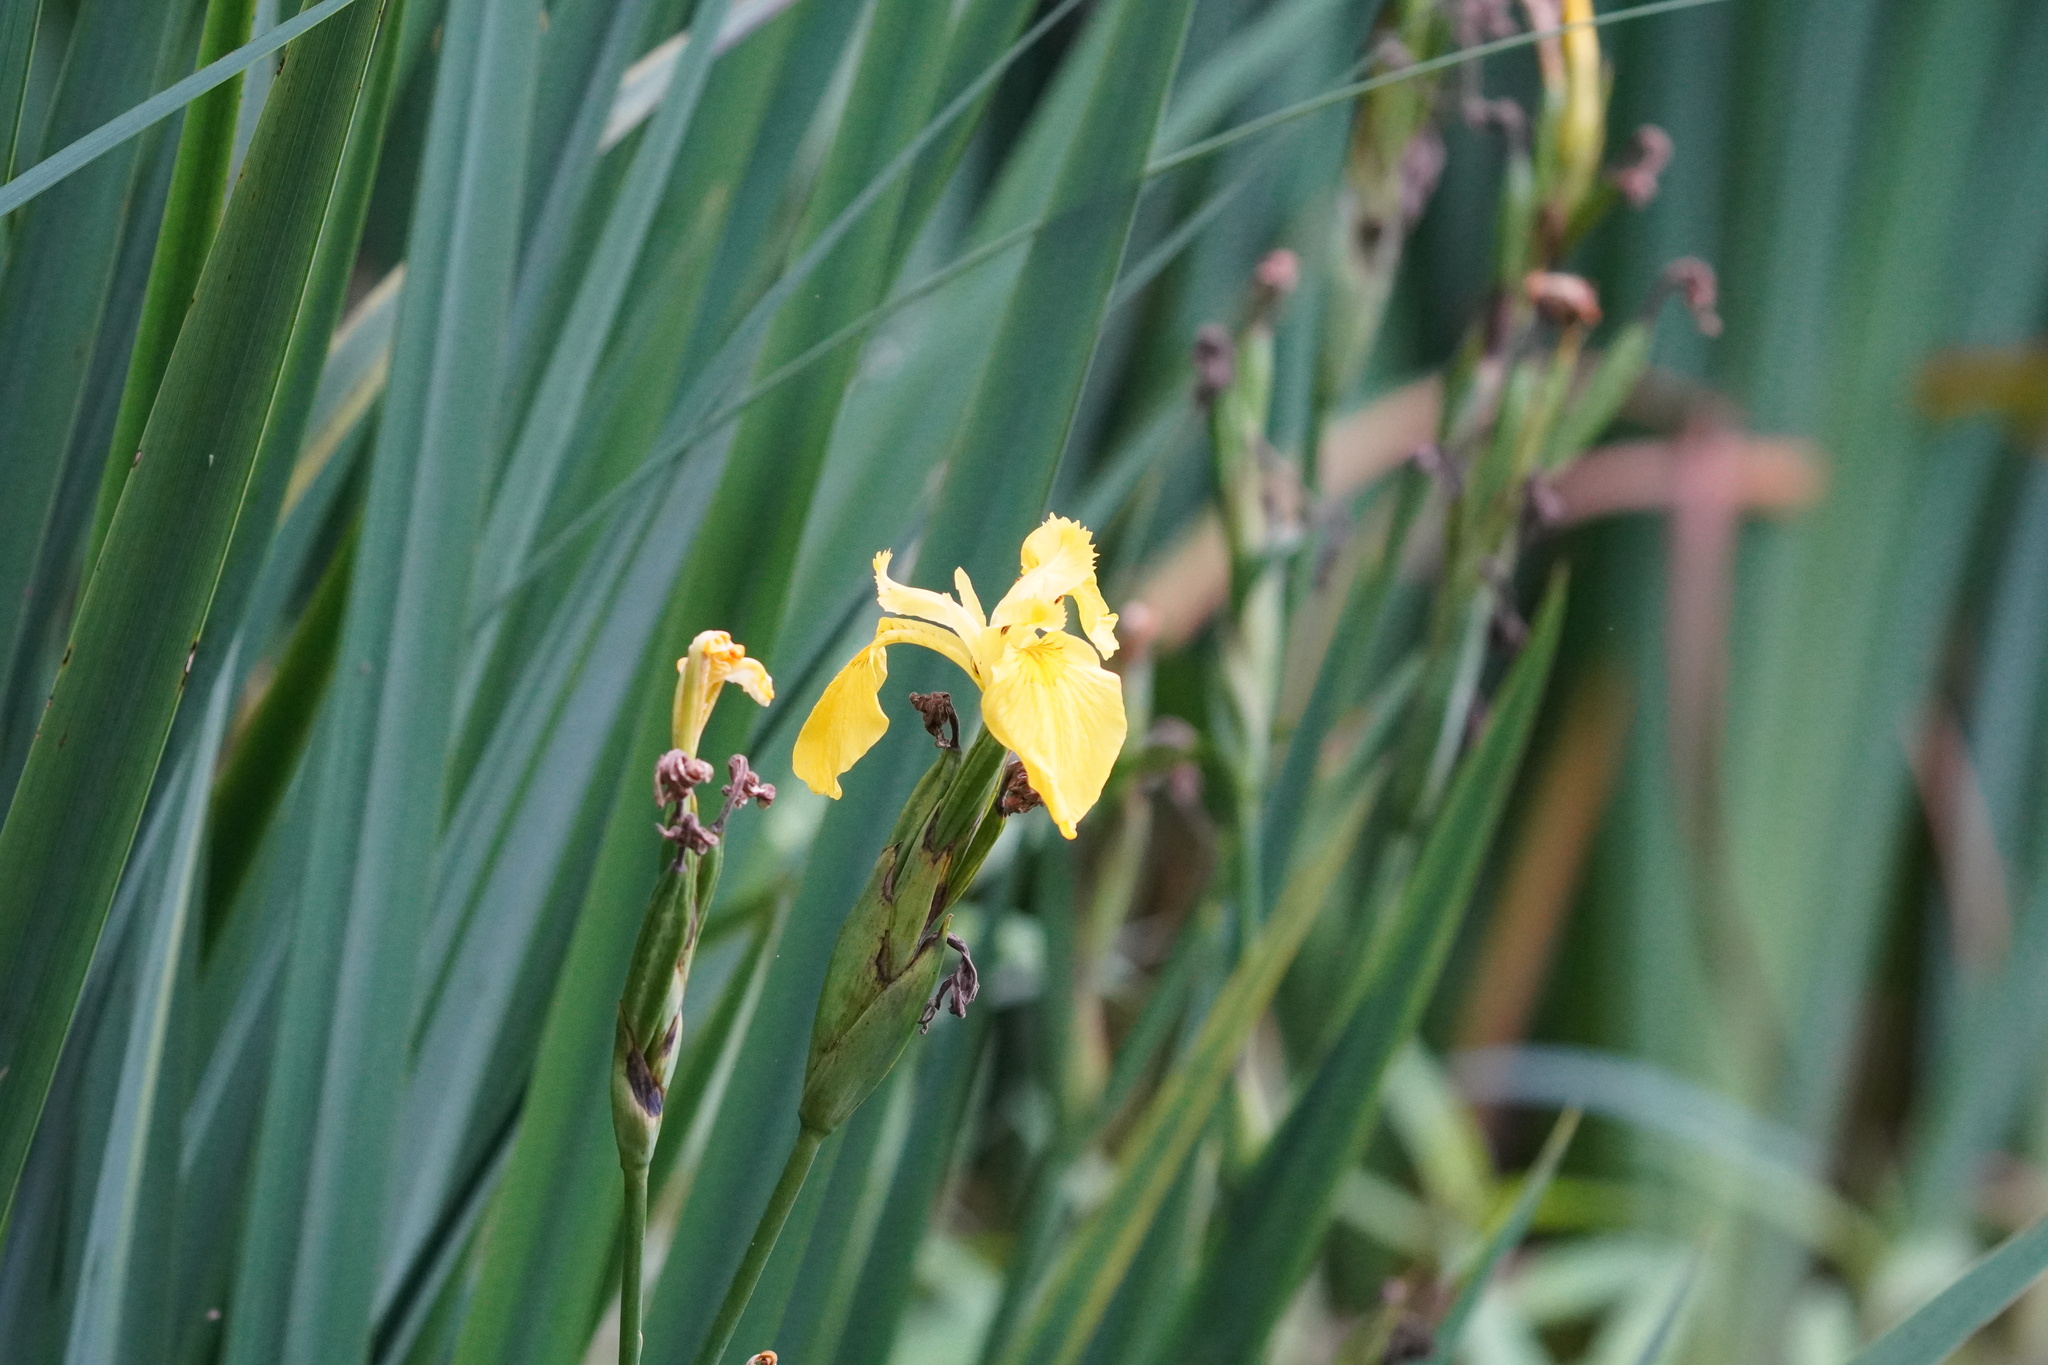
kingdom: Plantae
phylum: Tracheophyta
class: Liliopsida
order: Asparagales
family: Iridaceae
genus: Iris
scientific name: Iris pseudacorus
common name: Yellow flag
